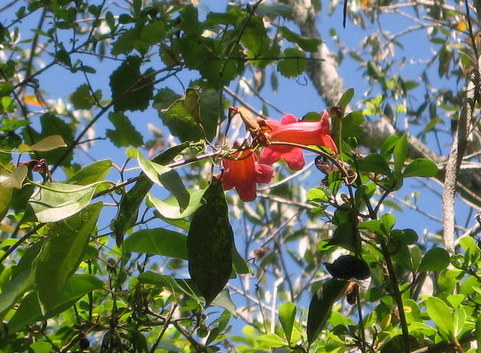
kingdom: Plantae
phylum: Tracheophyta
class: Magnoliopsida
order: Lamiales
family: Bignoniaceae
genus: Bignonia
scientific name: Bignonia capreolata
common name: Crossvine
